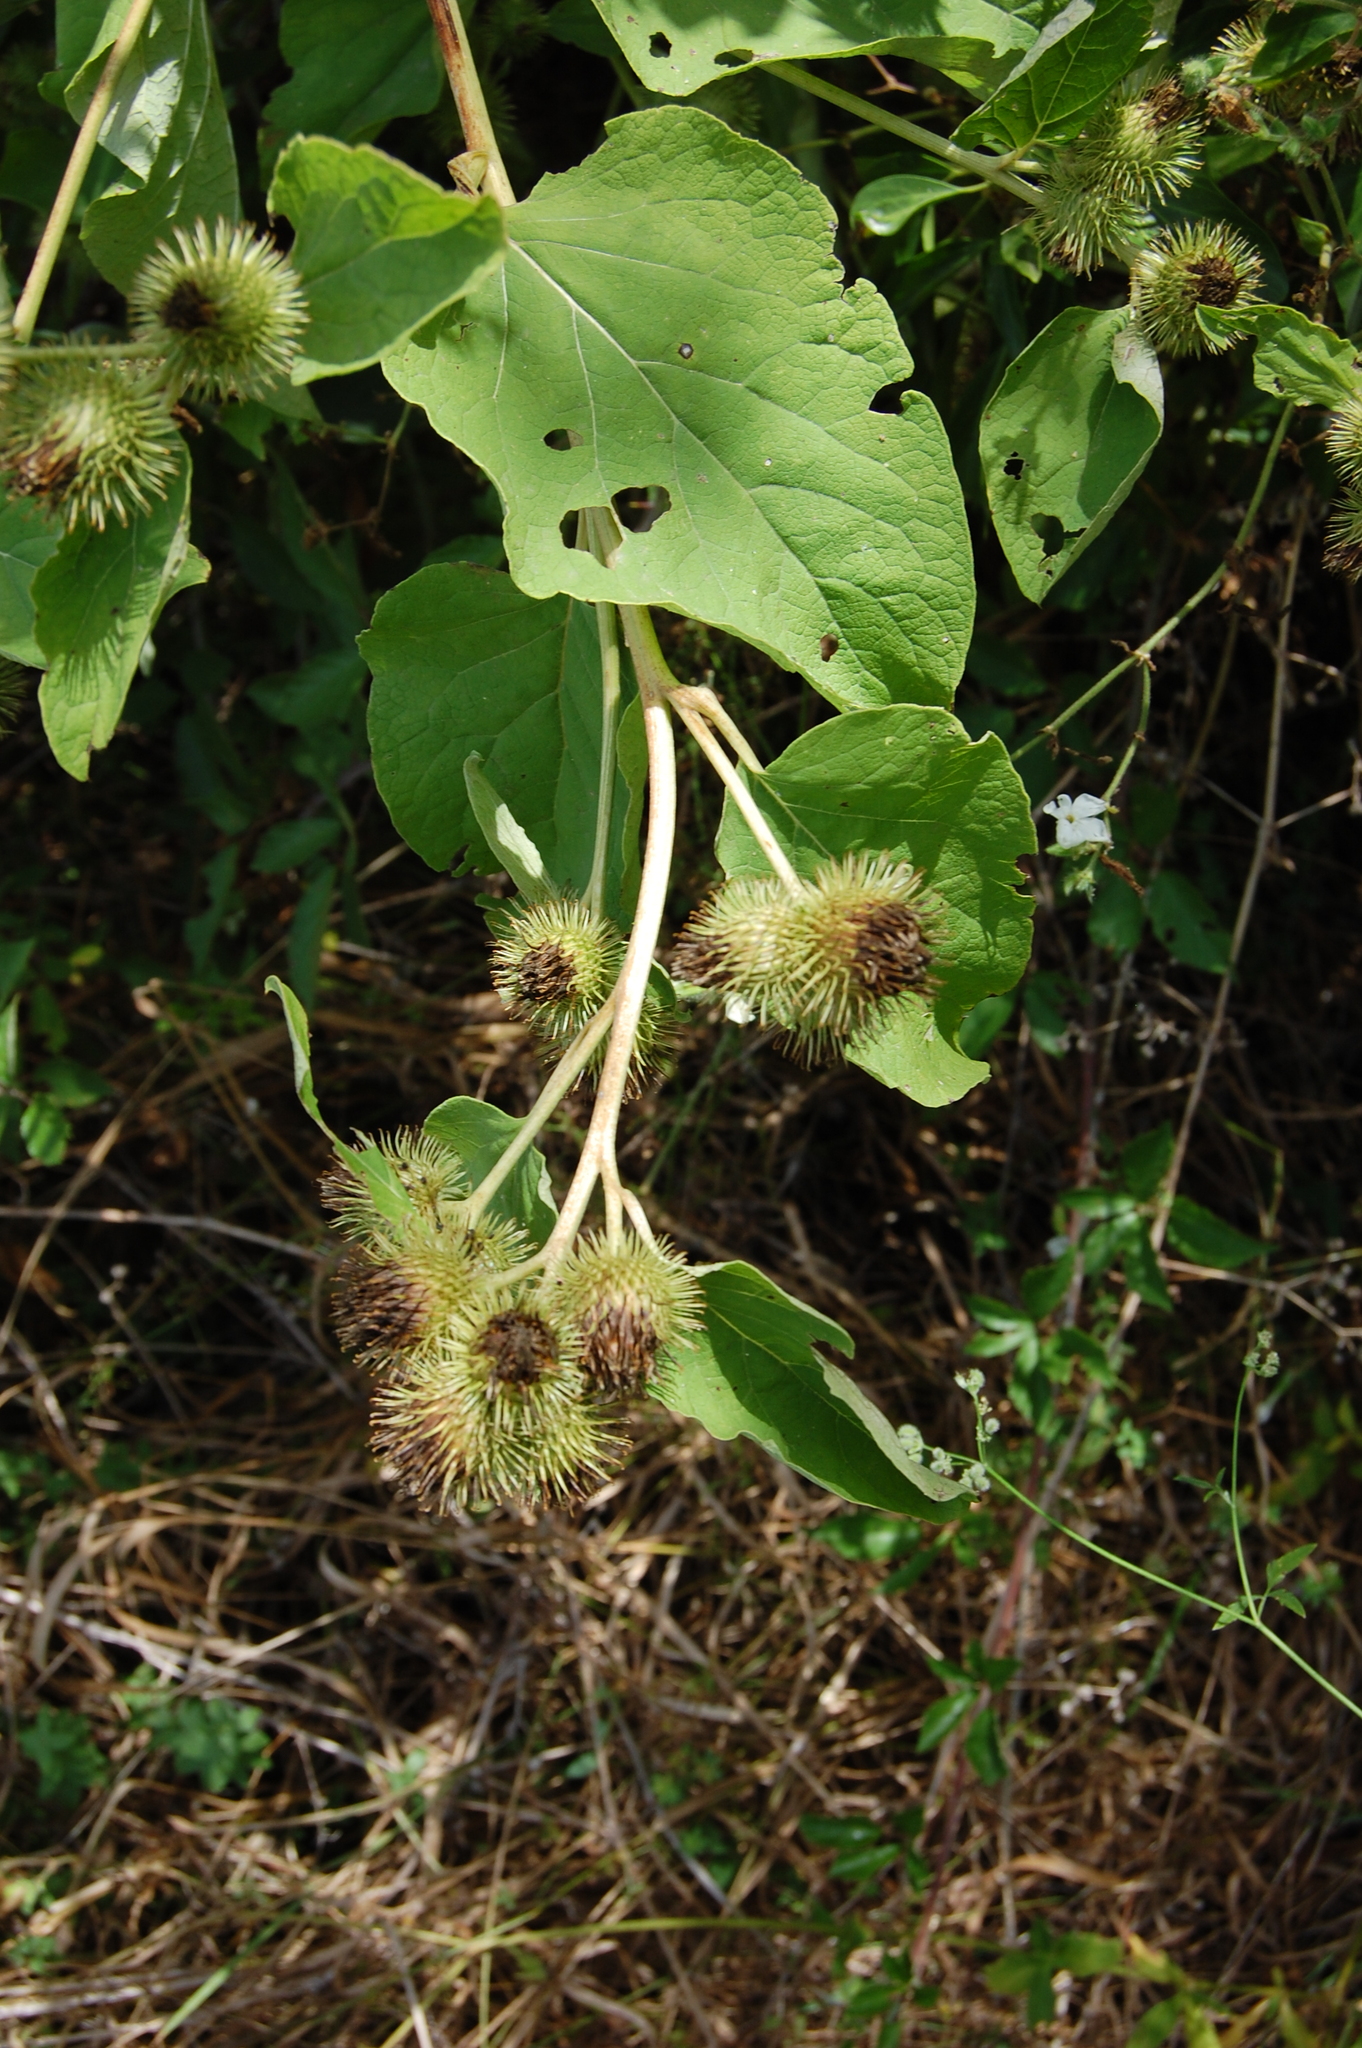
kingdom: Plantae
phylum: Tracheophyta
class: Magnoliopsida
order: Asterales
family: Asteraceae
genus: Arctium
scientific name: Arctium minus
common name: Lesser burdock
